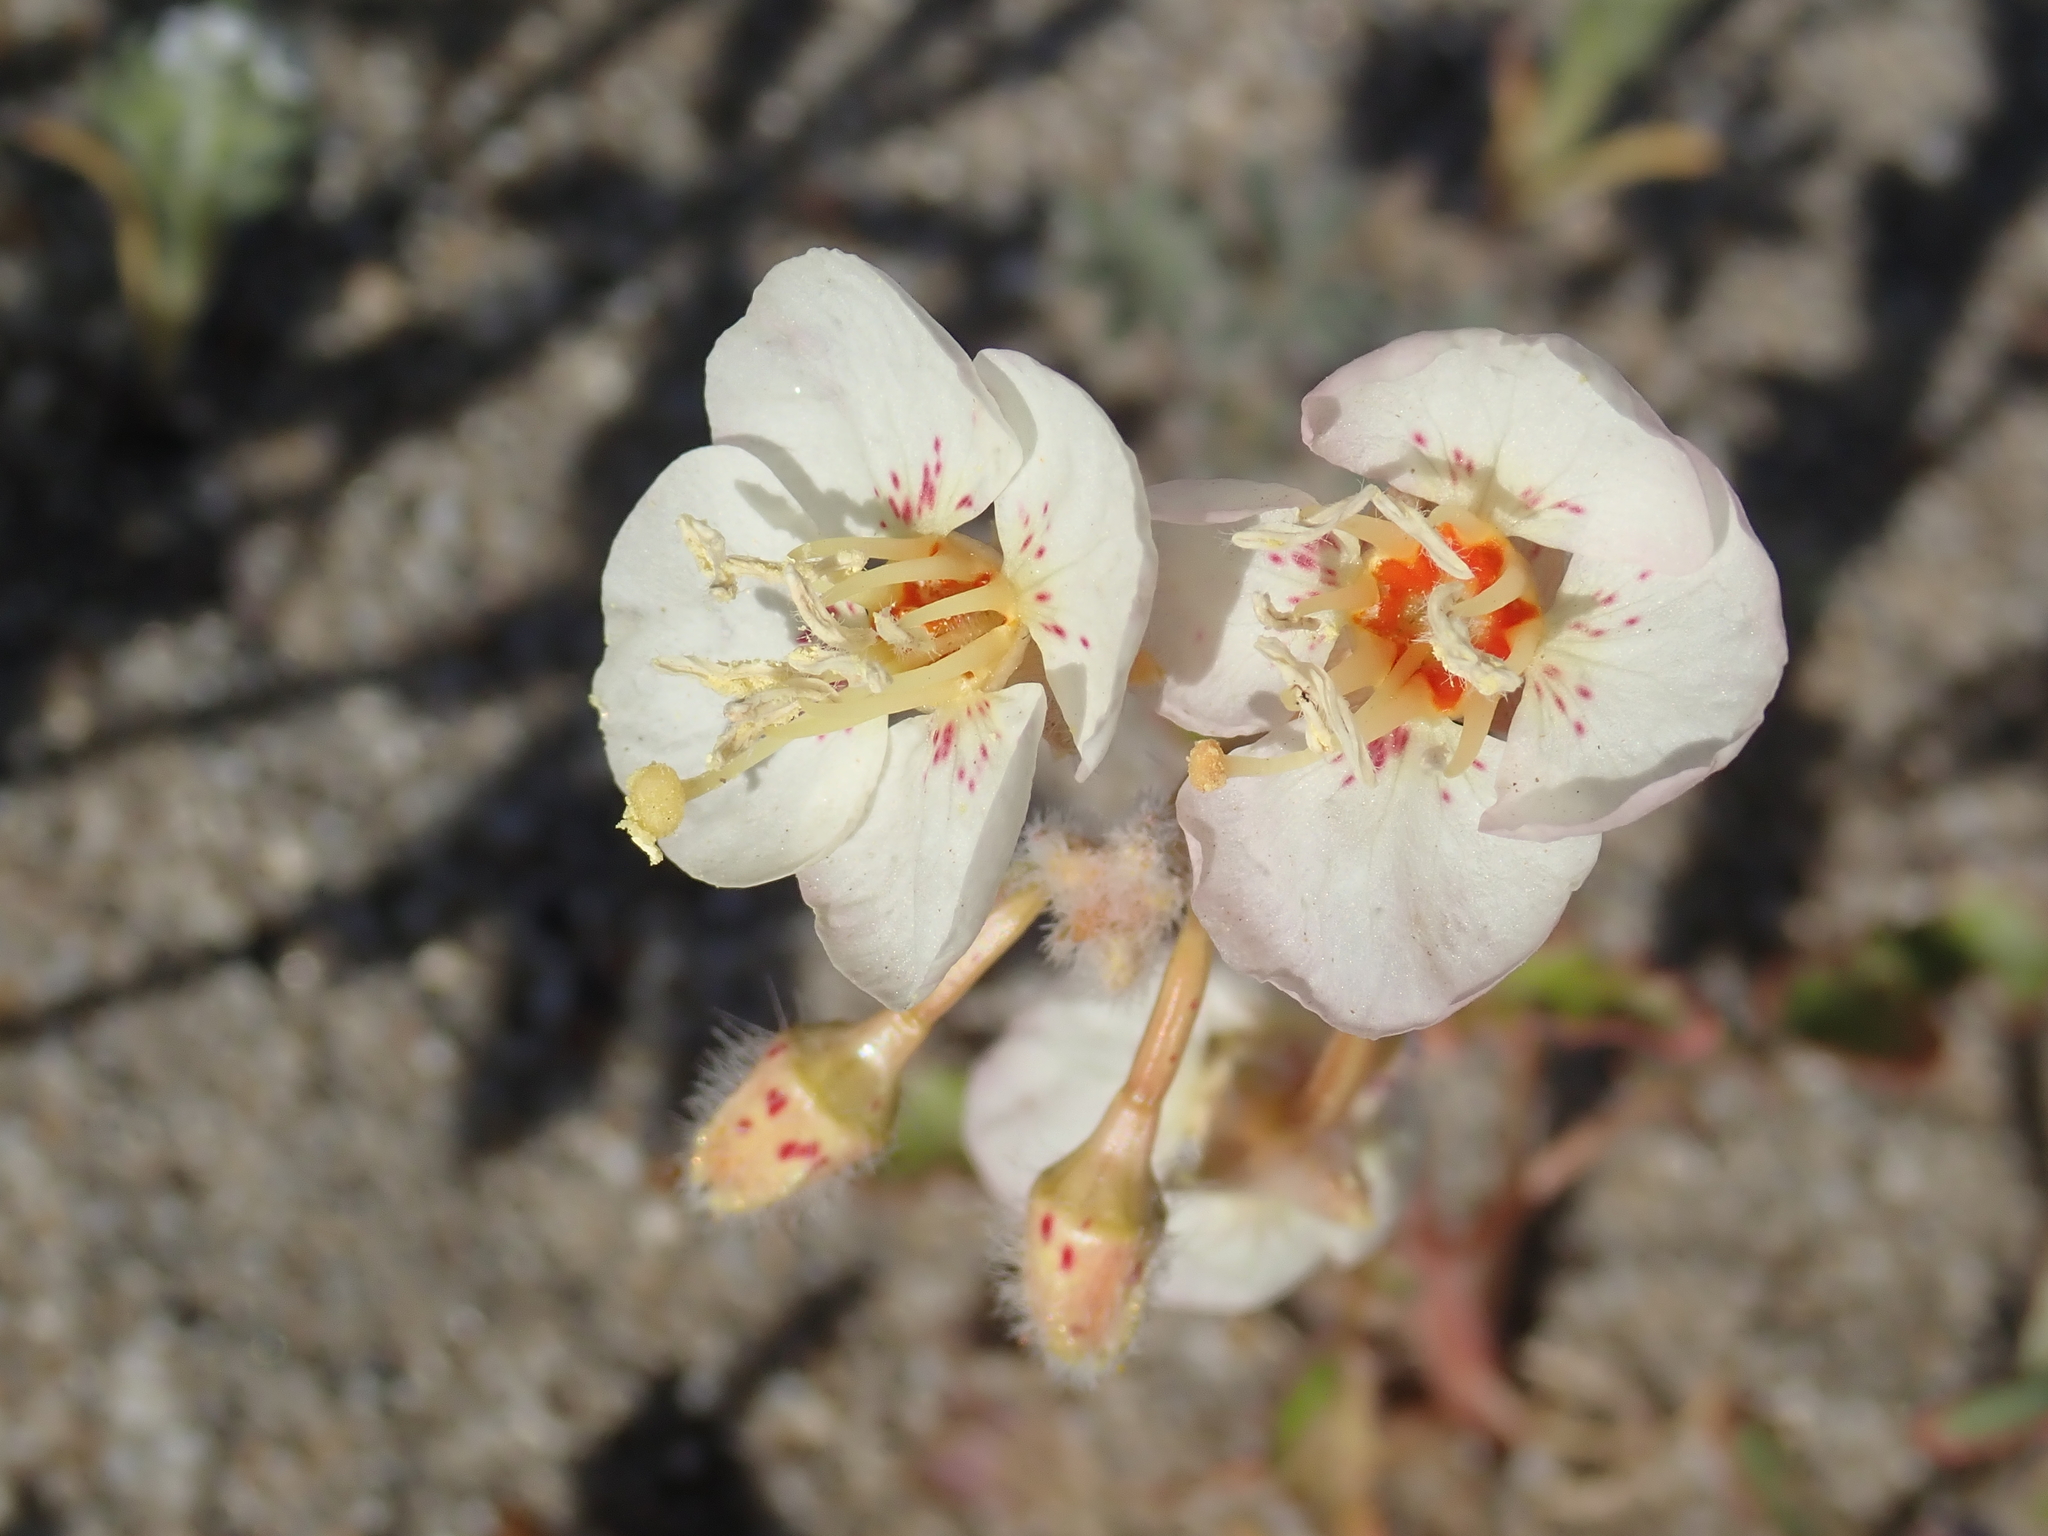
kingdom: Plantae
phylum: Tracheophyta
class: Magnoliopsida
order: Myrtales
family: Onagraceae
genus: Chylismia
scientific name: Chylismia claviformis
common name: Browneyes
